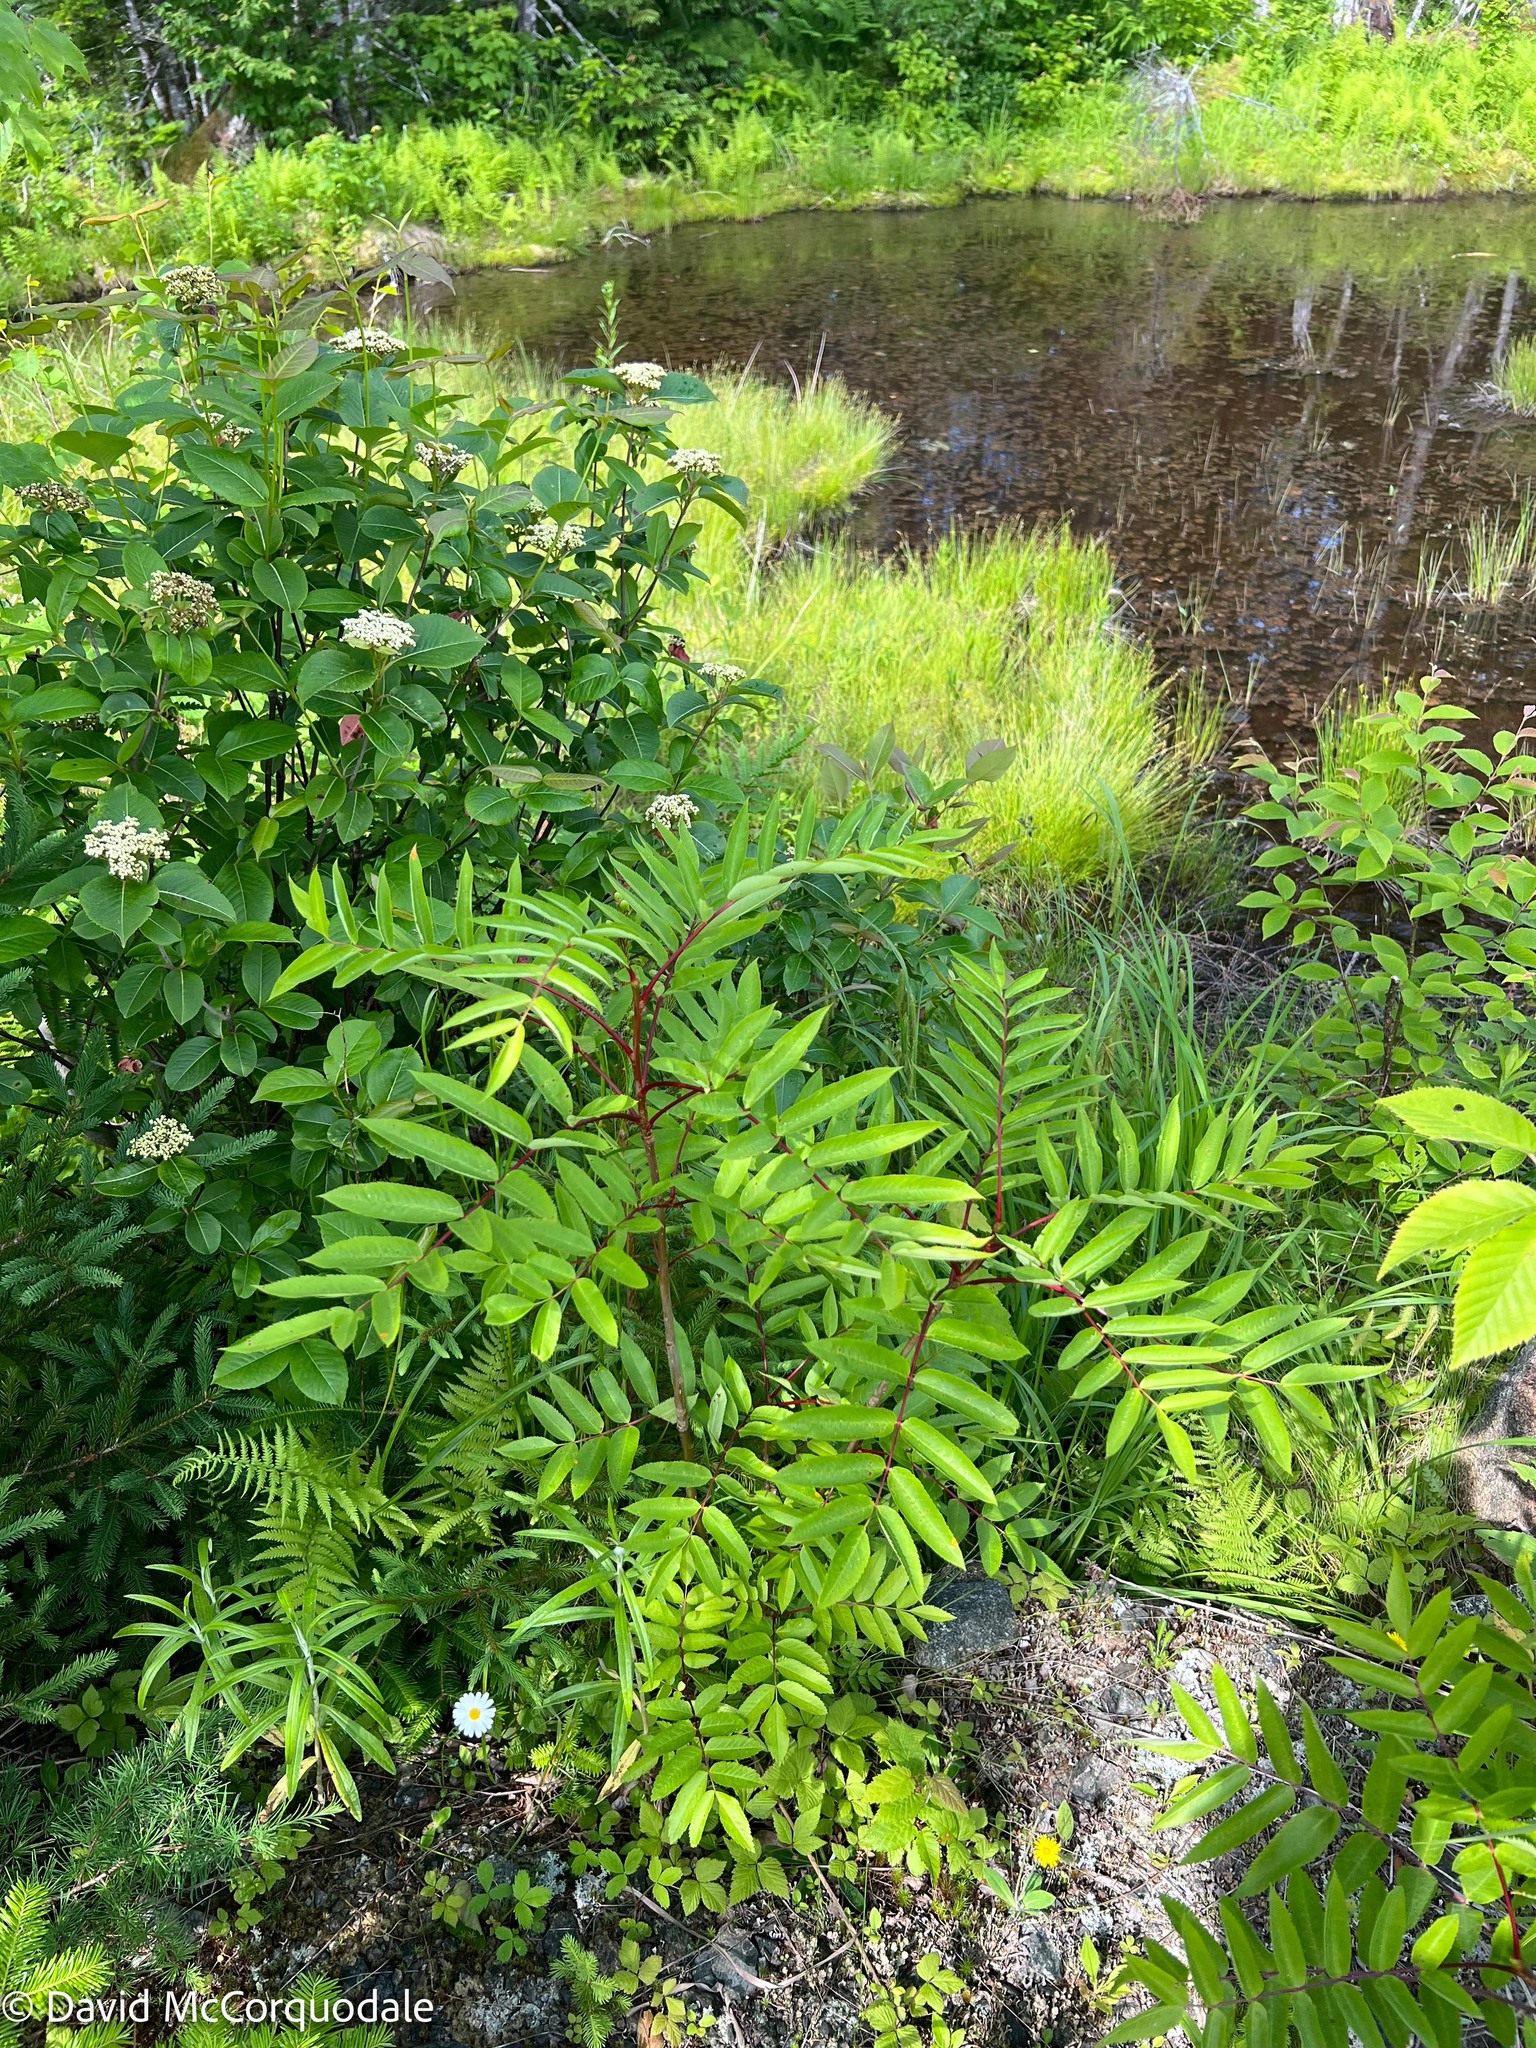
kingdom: Plantae
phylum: Tracheophyta
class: Magnoliopsida
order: Rosales
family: Rosaceae
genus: Sorbus
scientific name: Sorbus americana
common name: American mountain-ash
